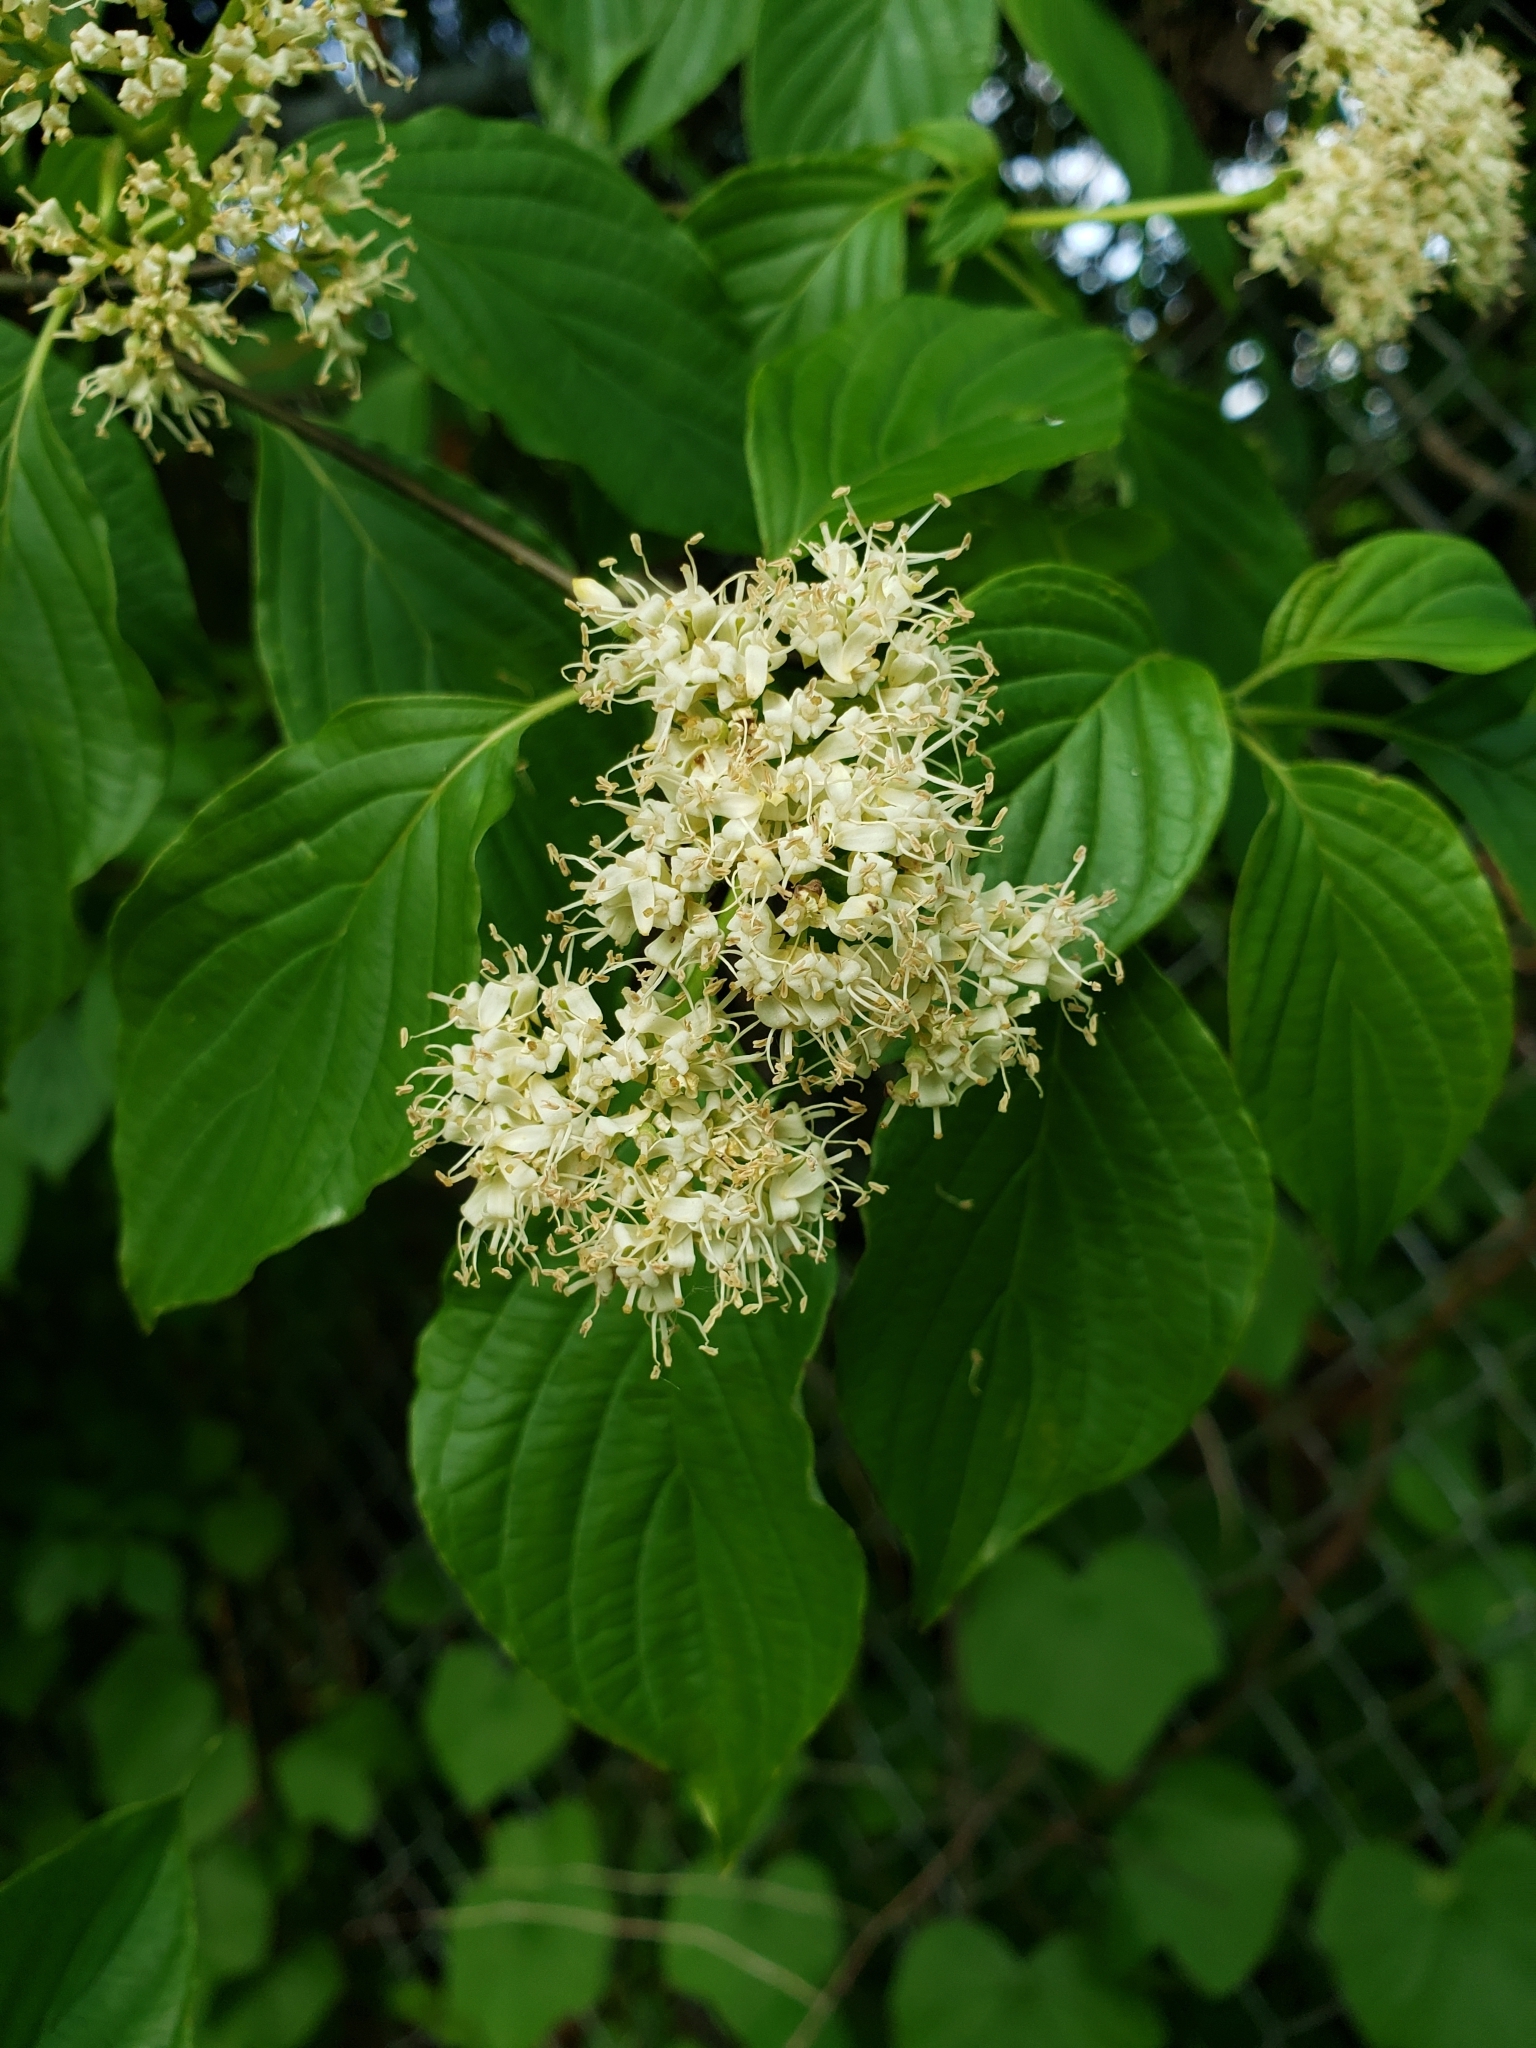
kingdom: Plantae
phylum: Tracheophyta
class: Magnoliopsida
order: Cornales
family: Cornaceae
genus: Cornus
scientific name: Cornus alternifolia
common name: Pagoda dogwood
